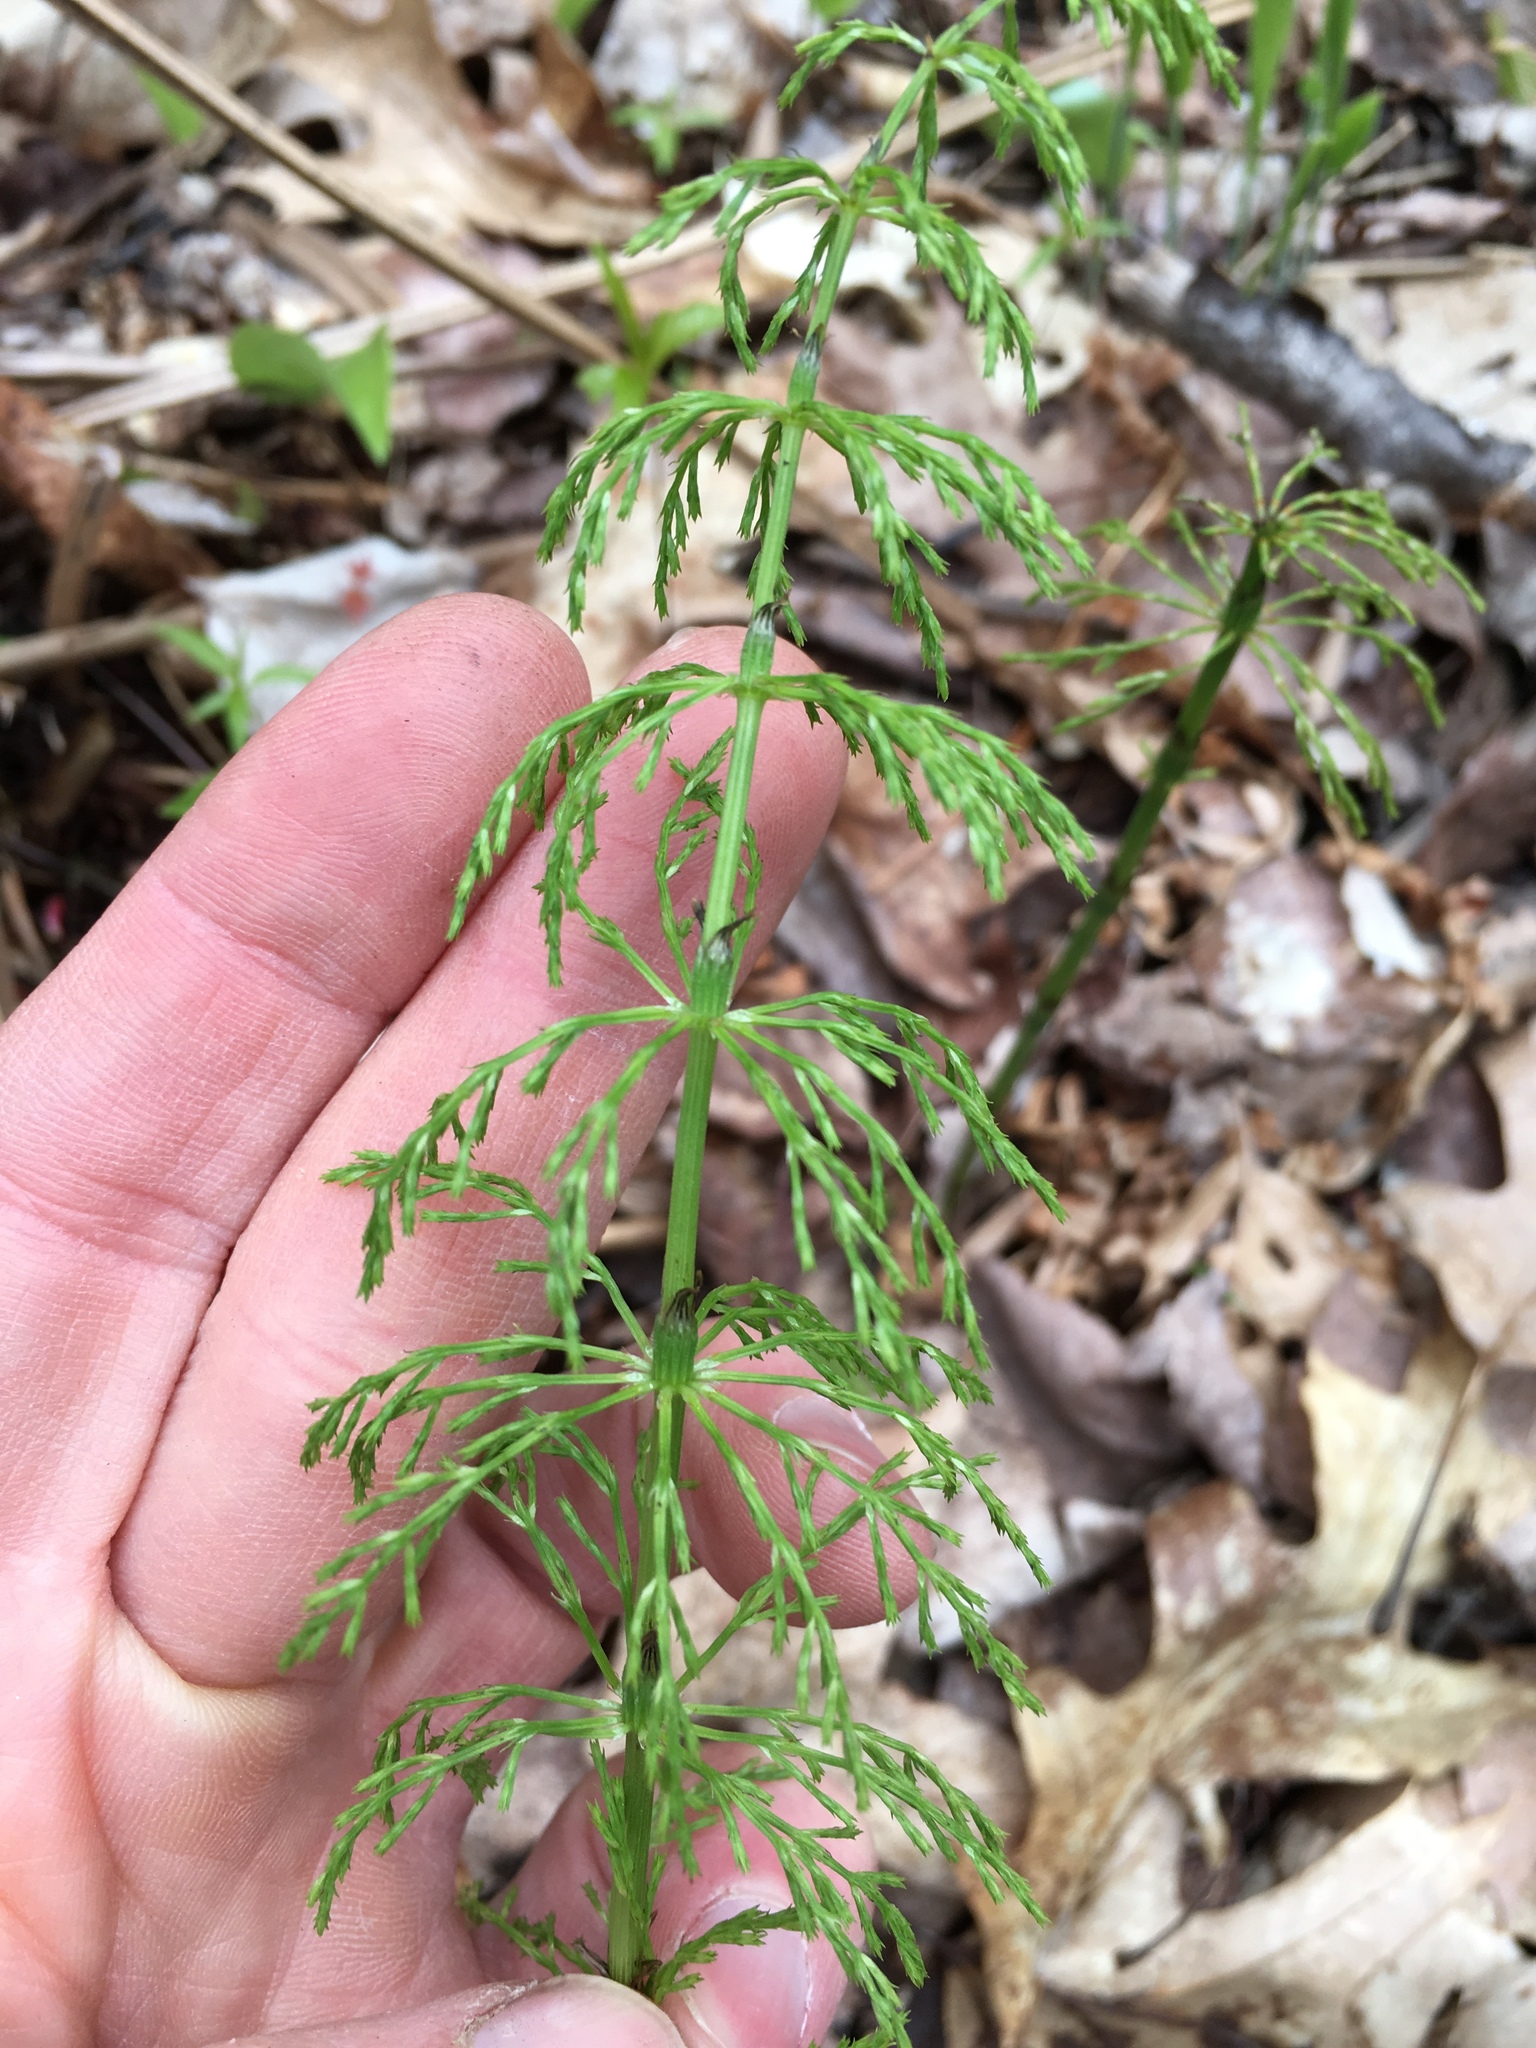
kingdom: Plantae
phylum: Tracheophyta
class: Polypodiopsida
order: Equisetales
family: Equisetaceae
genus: Equisetum
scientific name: Equisetum sylvaticum
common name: Wood horsetail
